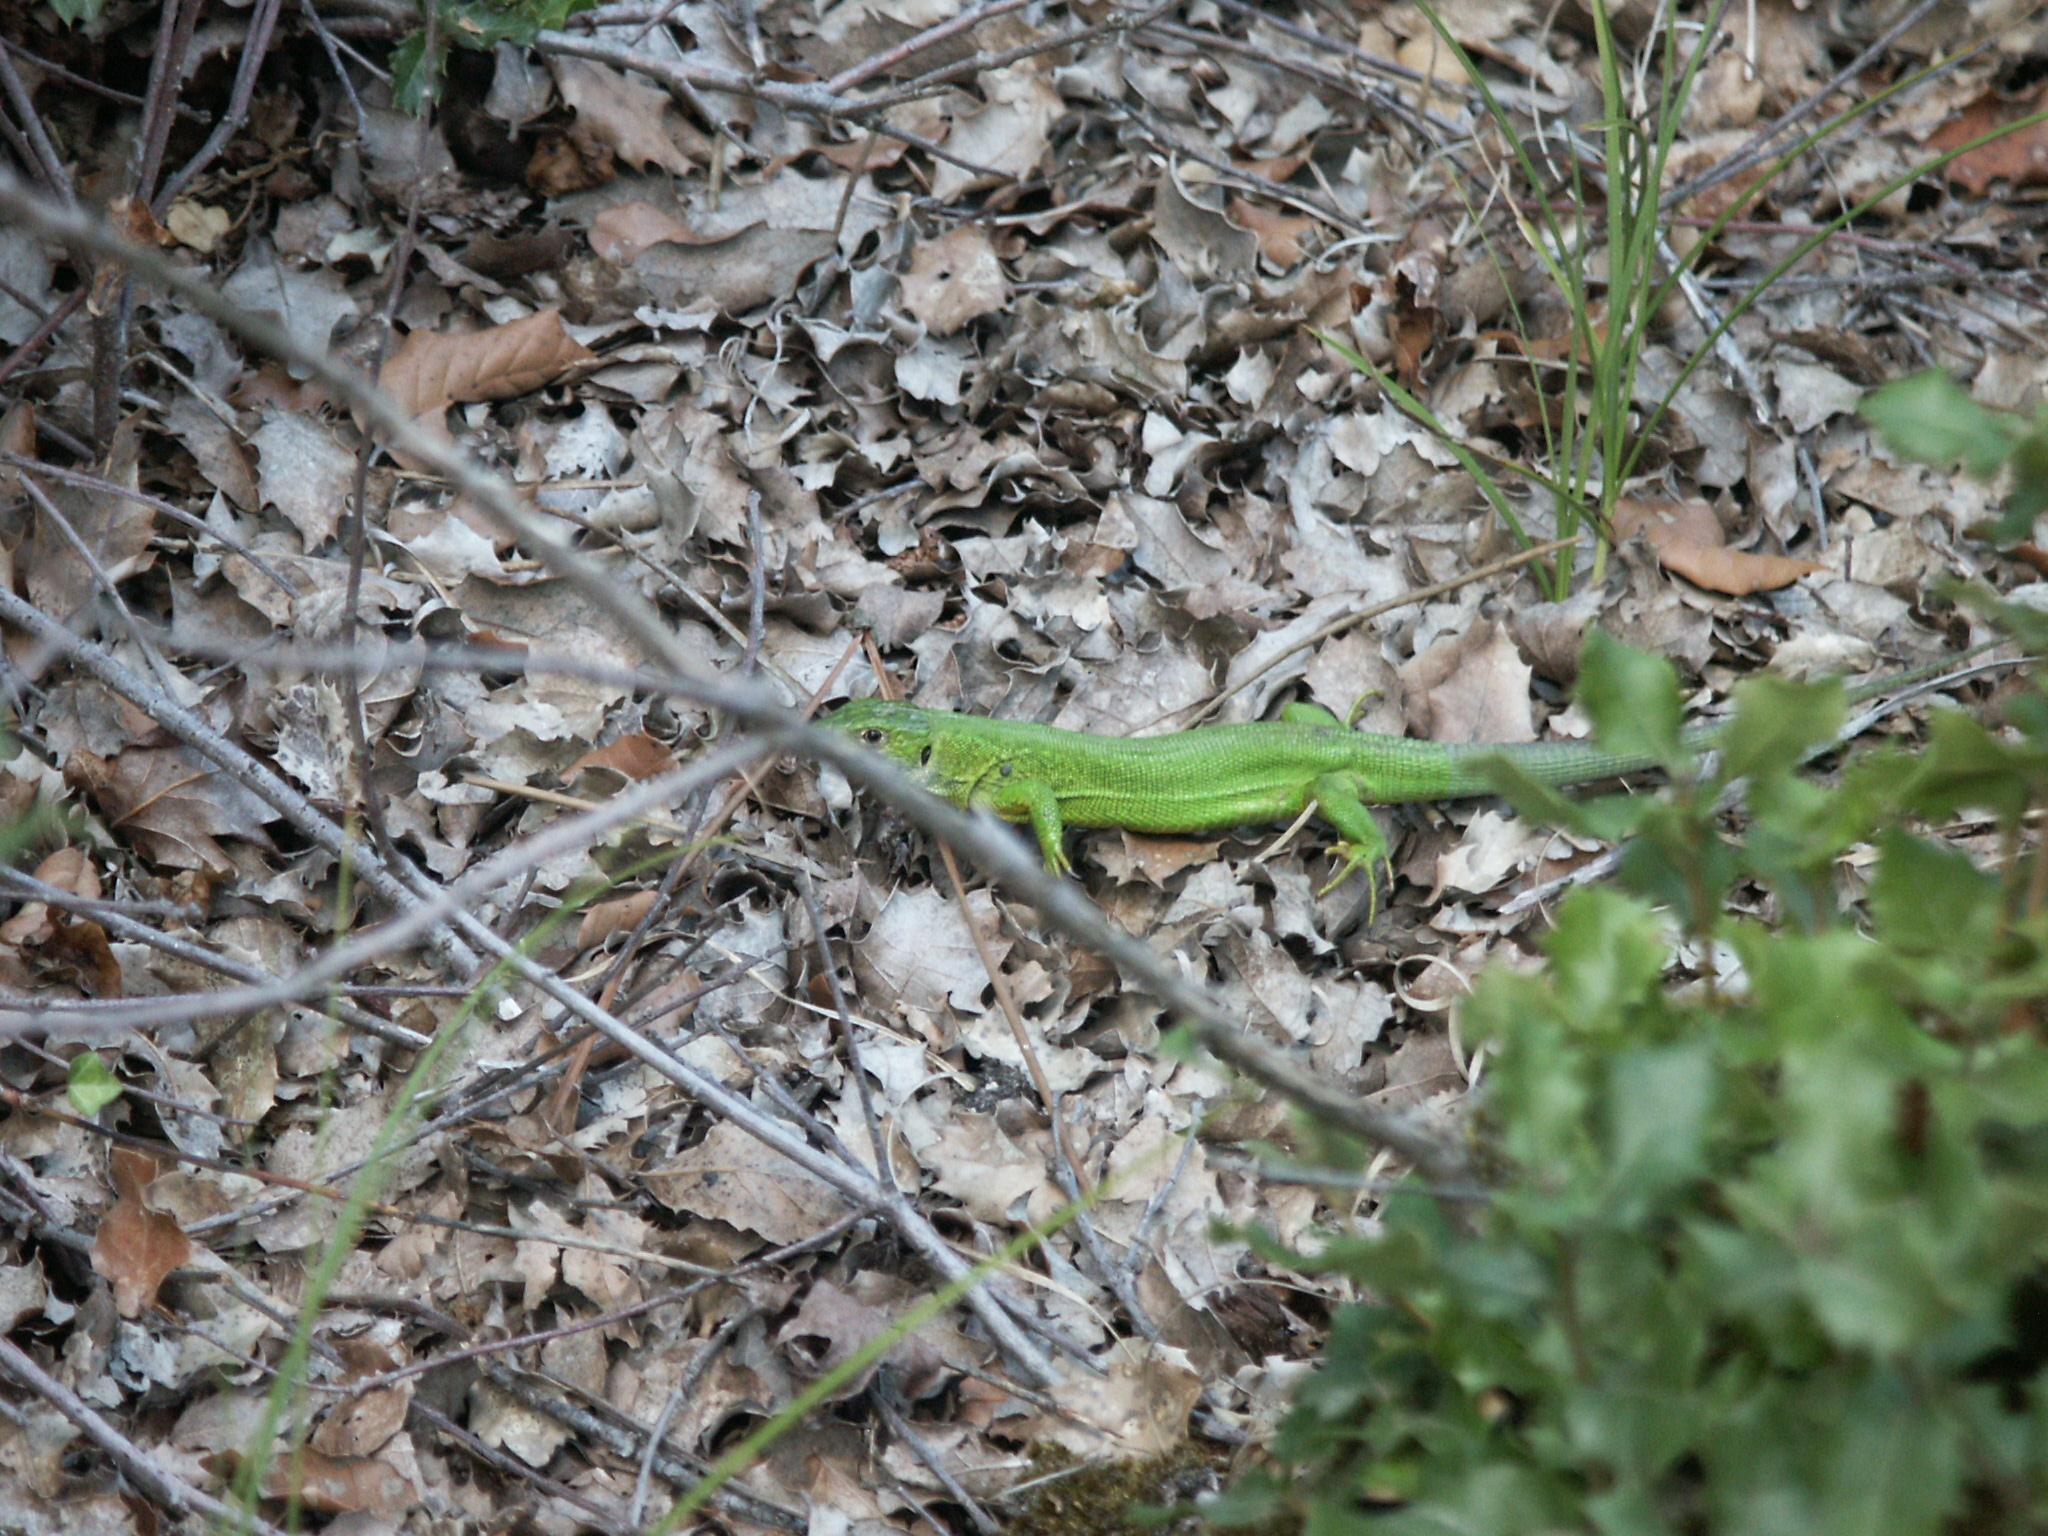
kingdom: Animalia
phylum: Chordata
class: Squamata
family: Lacertidae
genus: Lacerta
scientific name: Lacerta bilineata
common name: Western green lizard
